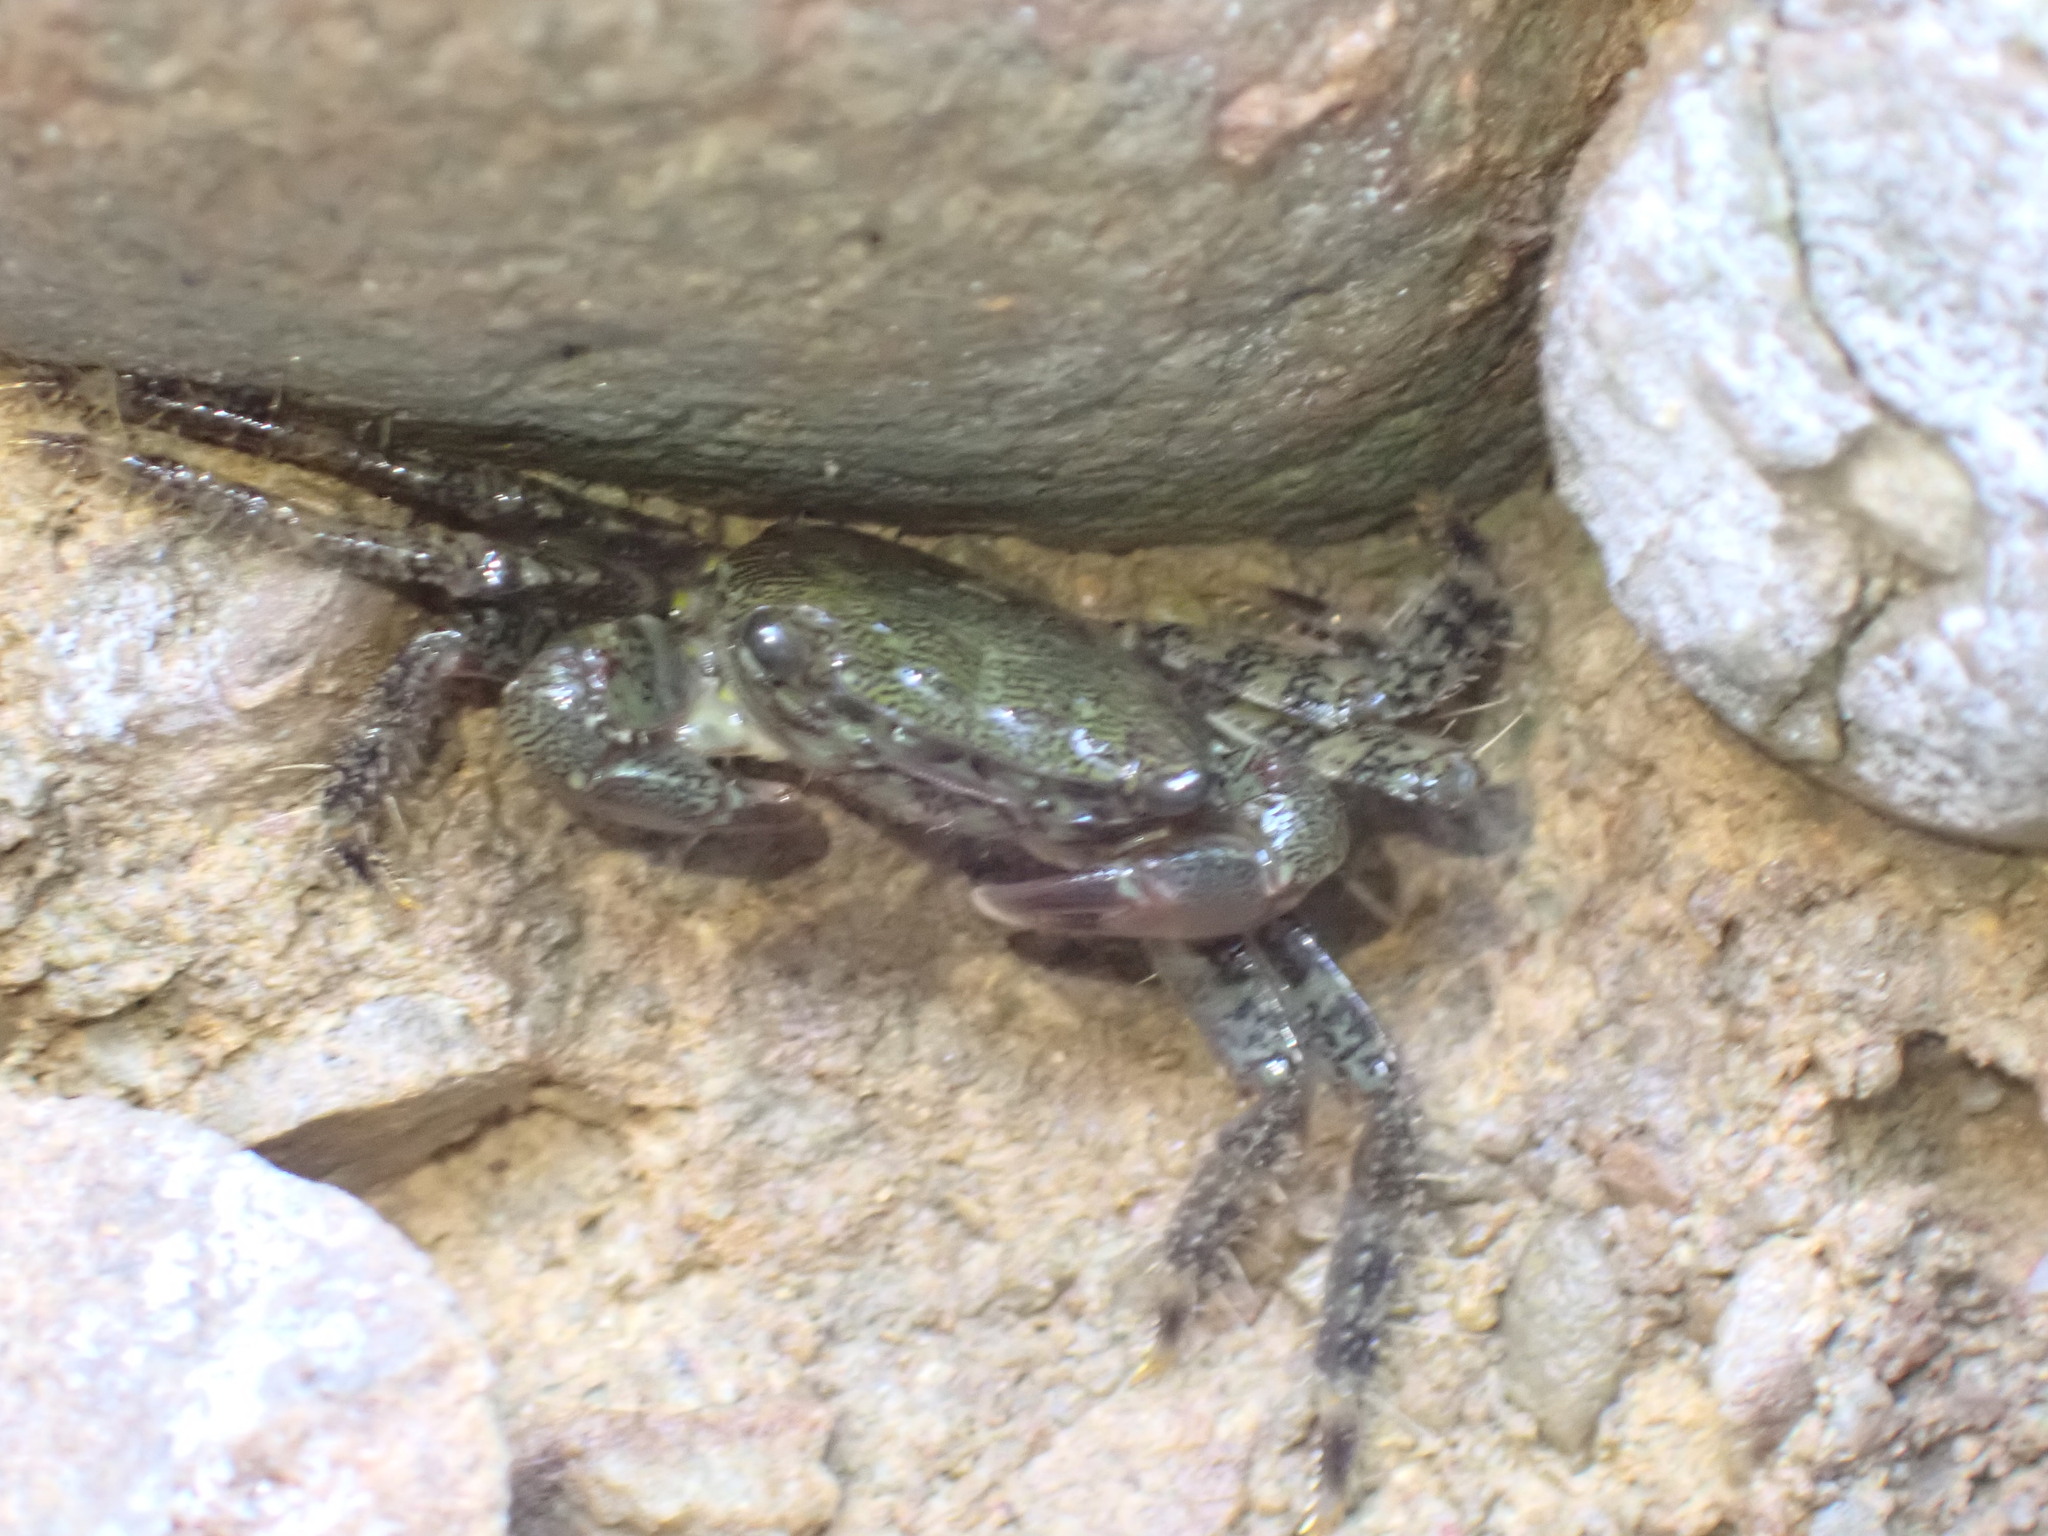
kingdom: Animalia
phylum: Arthropoda
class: Malacostraca
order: Decapoda
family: Grapsidae
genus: Pachygrapsus
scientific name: Pachygrapsus marmoratus
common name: Marbled rock crab
